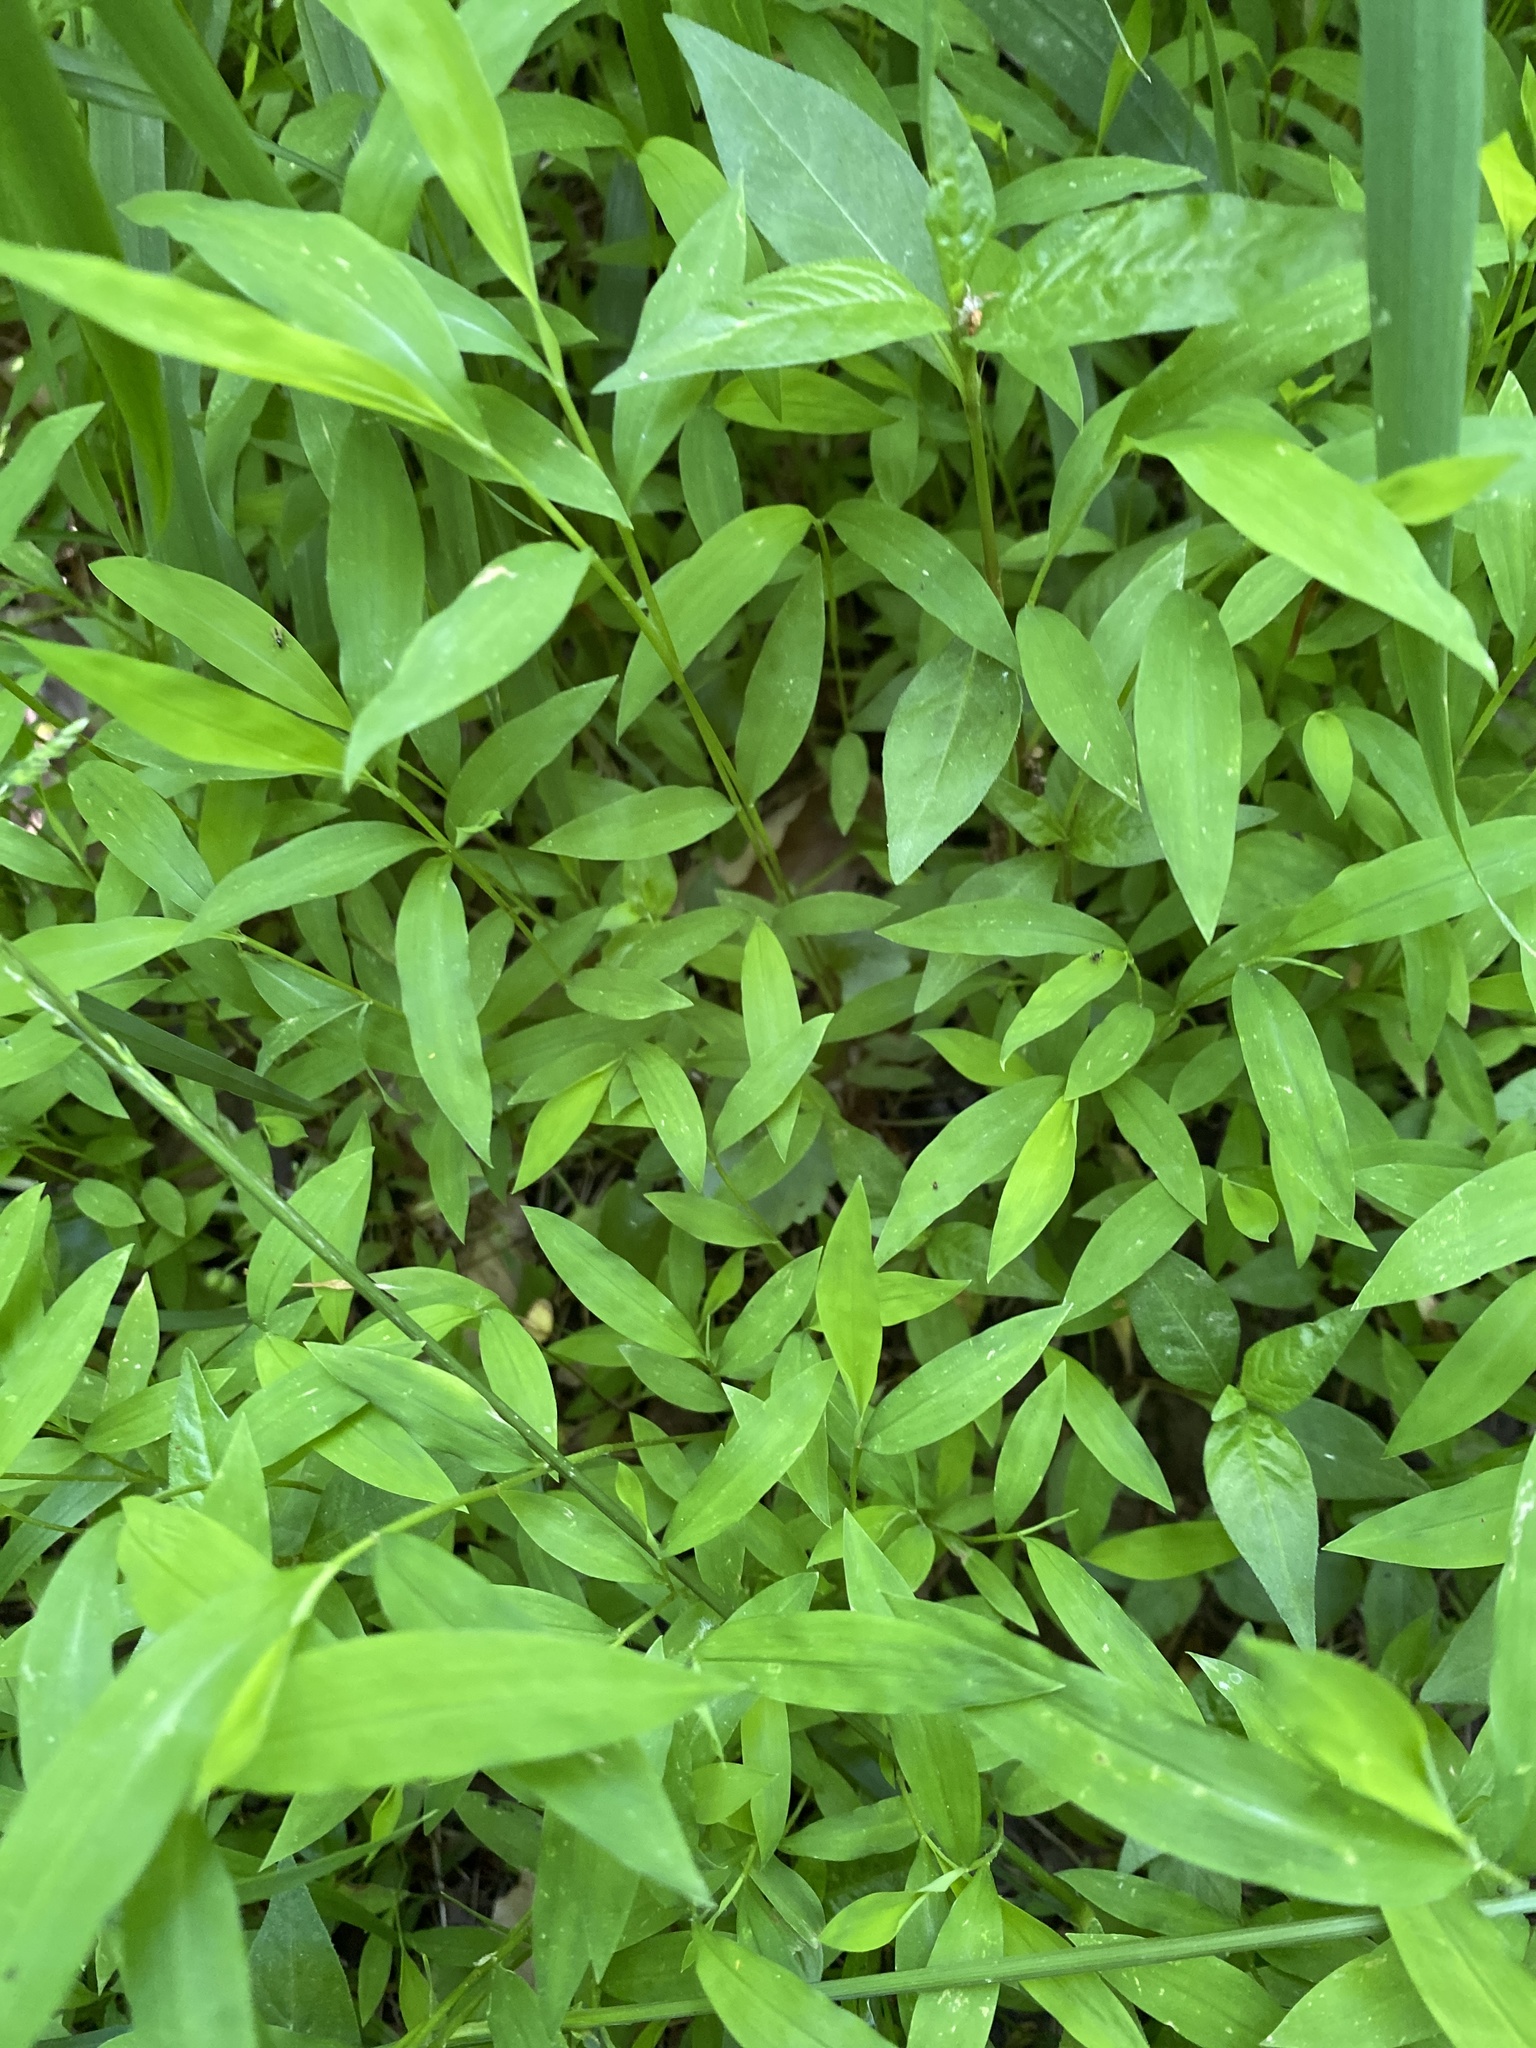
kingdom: Plantae
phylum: Tracheophyta
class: Liliopsida
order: Poales
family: Poaceae
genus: Microstegium
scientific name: Microstegium vimineum
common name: Japanese stiltgrass
